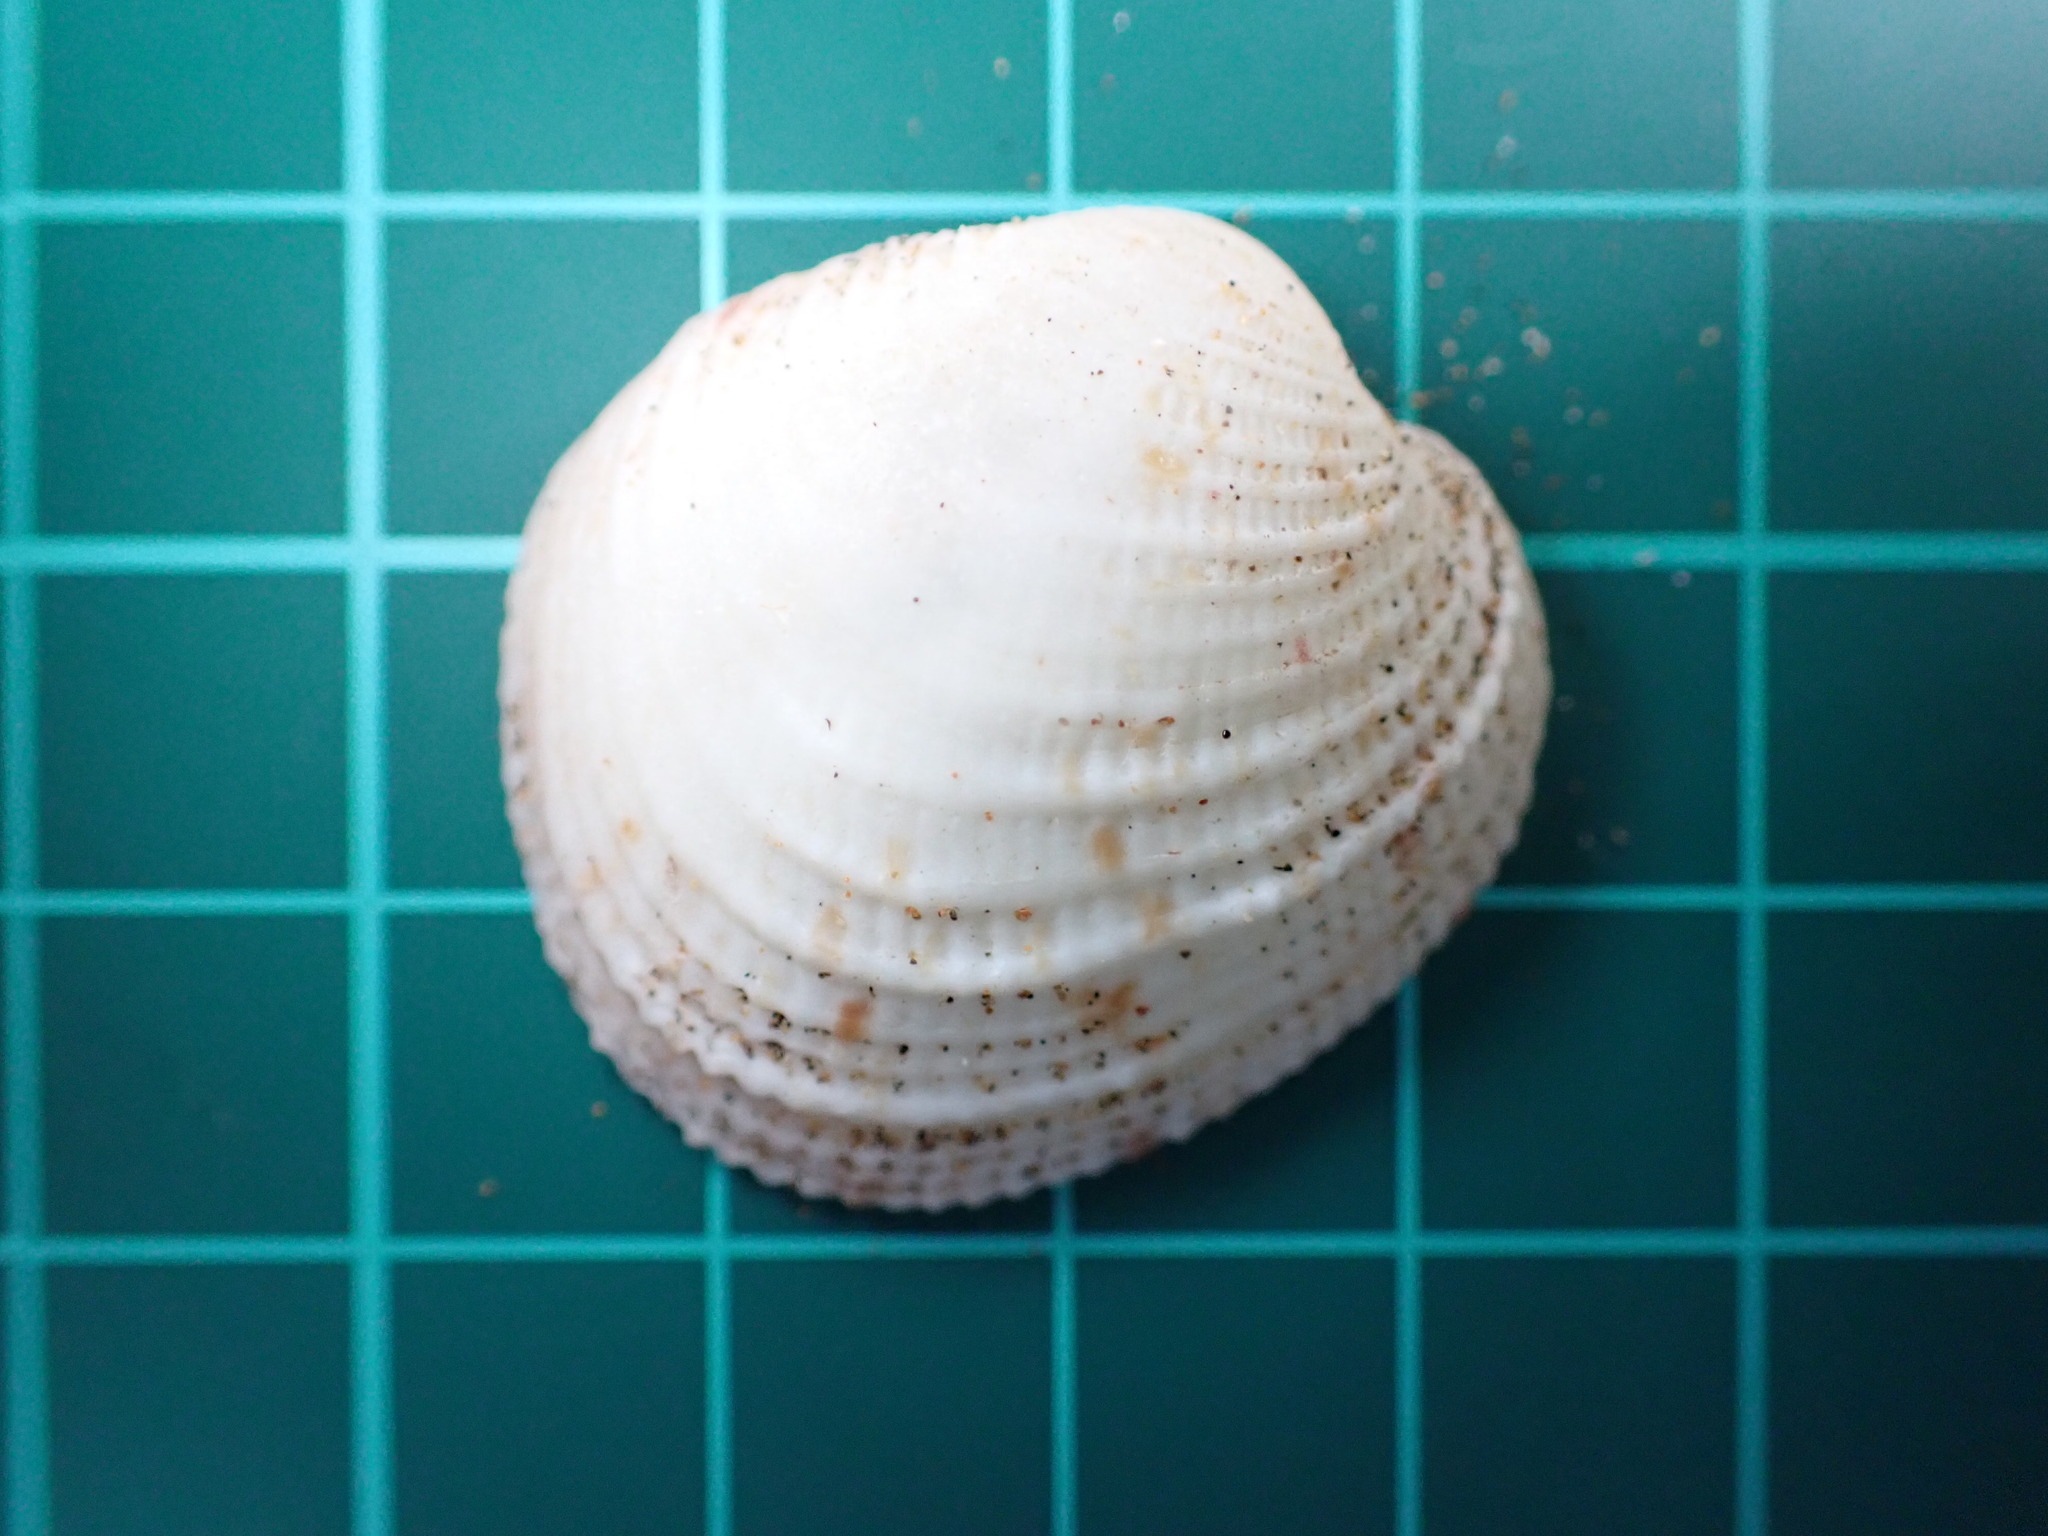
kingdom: Animalia
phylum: Mollusca
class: Bivalvia
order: Venerida
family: Veneridae
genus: Periglypta
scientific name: Periglypta reticulata
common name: Reticulated venus
